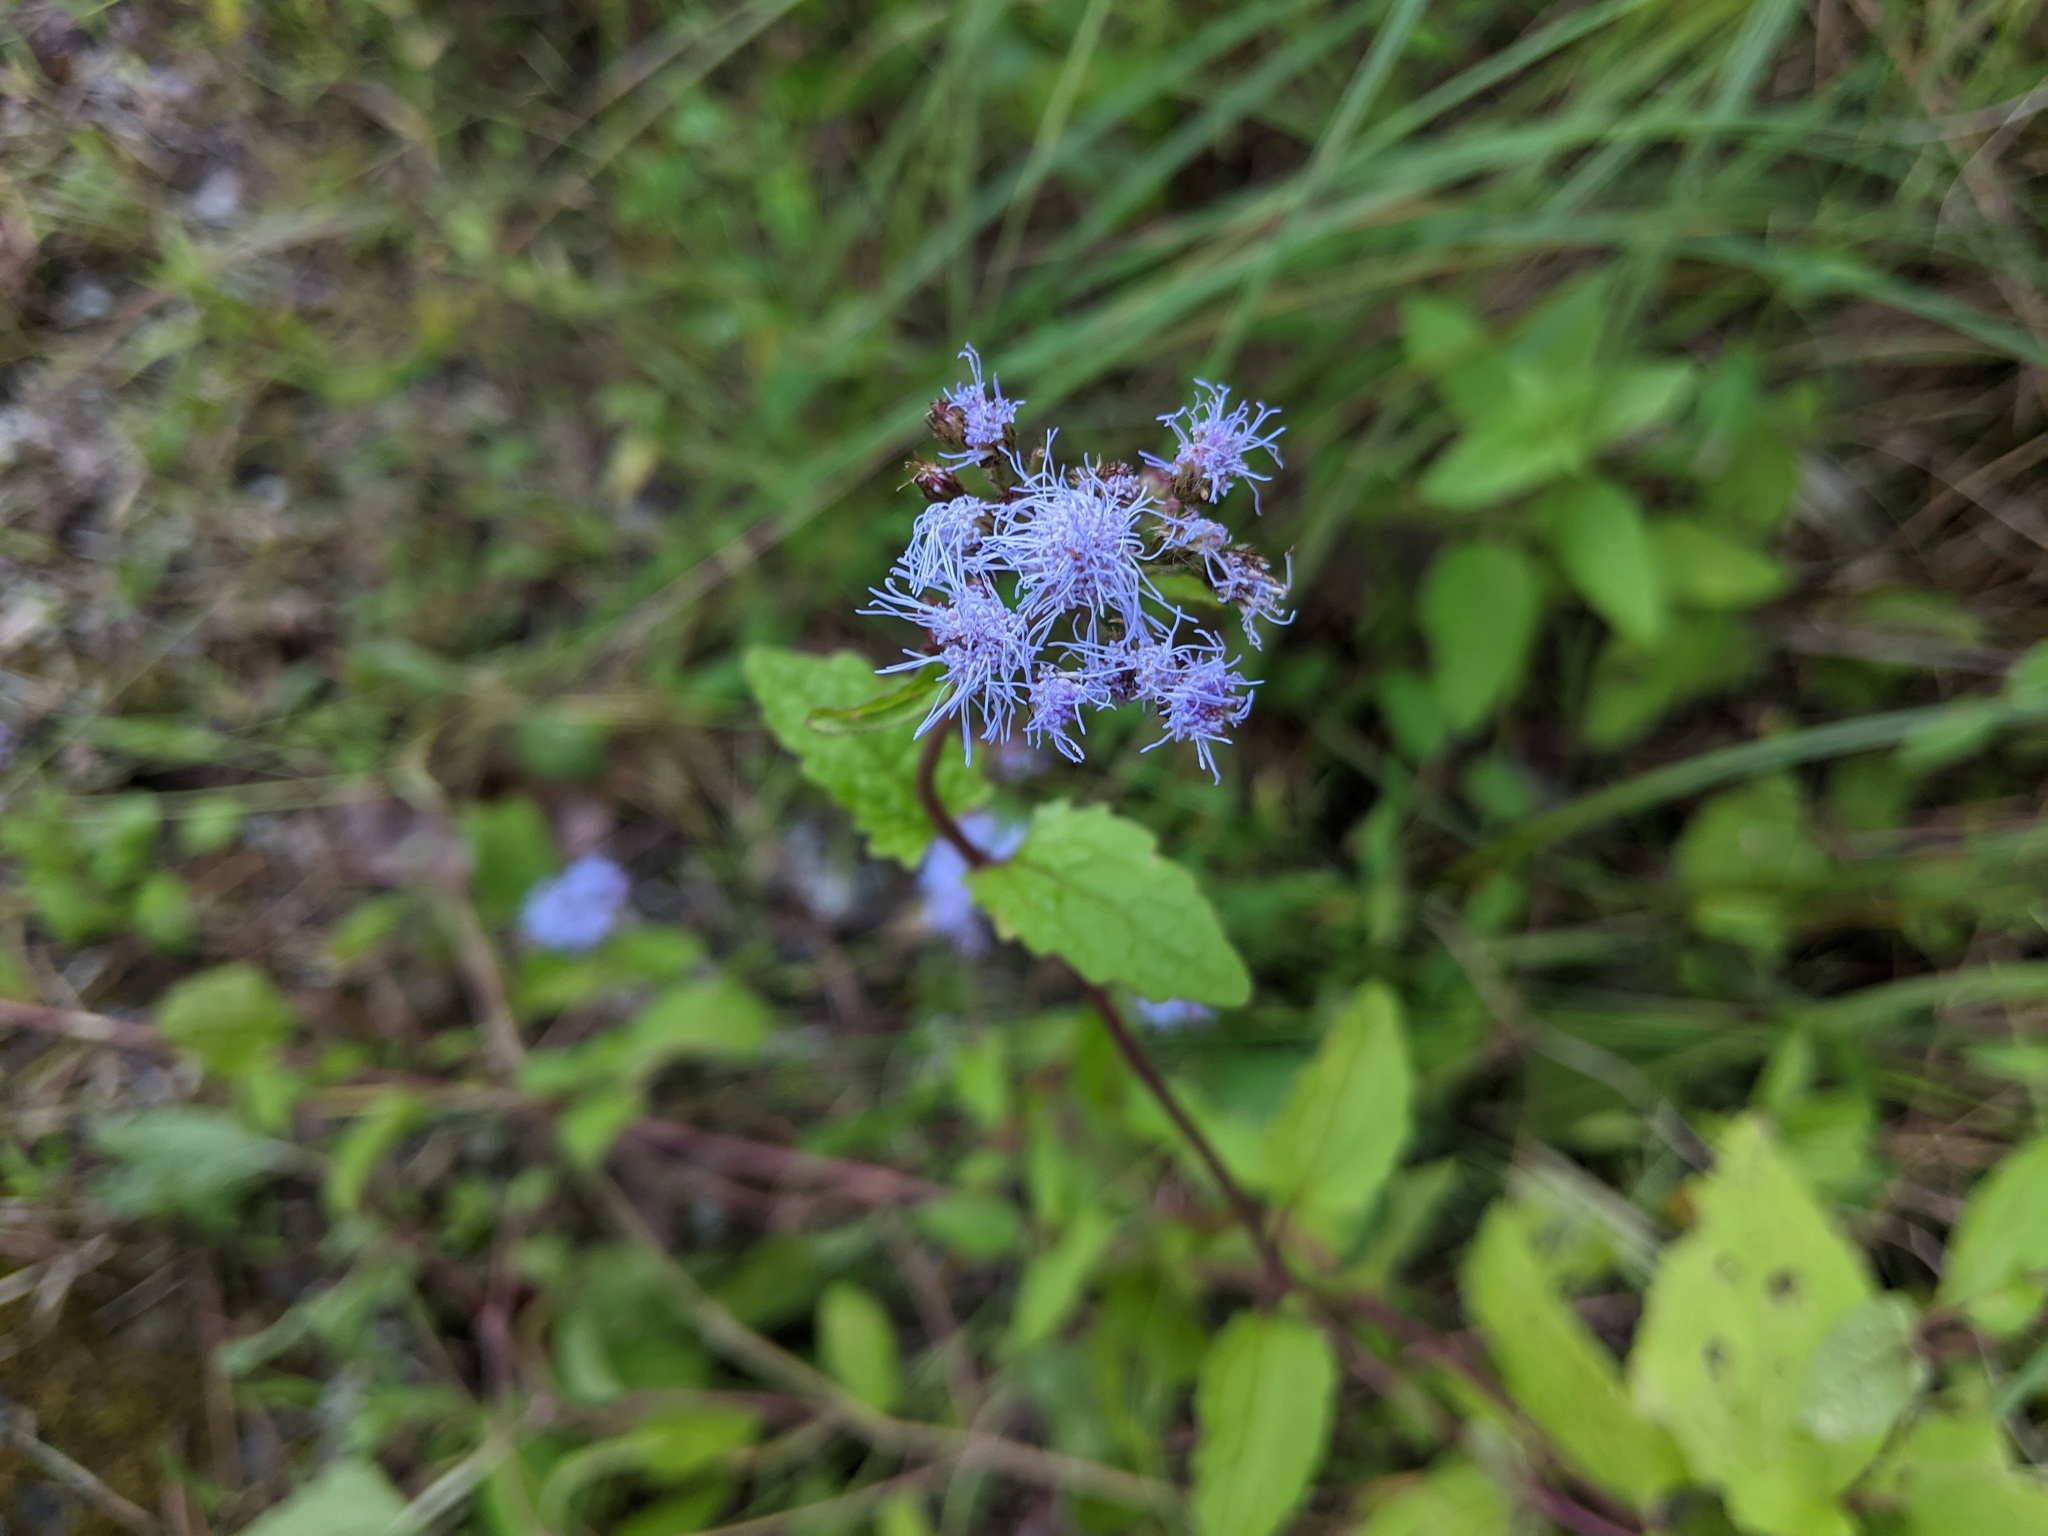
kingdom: Plantae
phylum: Tracheophyta
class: Magnoliopsida
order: Asterales
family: Asteraceae
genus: Conoclinium
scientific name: Conoclinium coelestinum
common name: Blue mistflower
